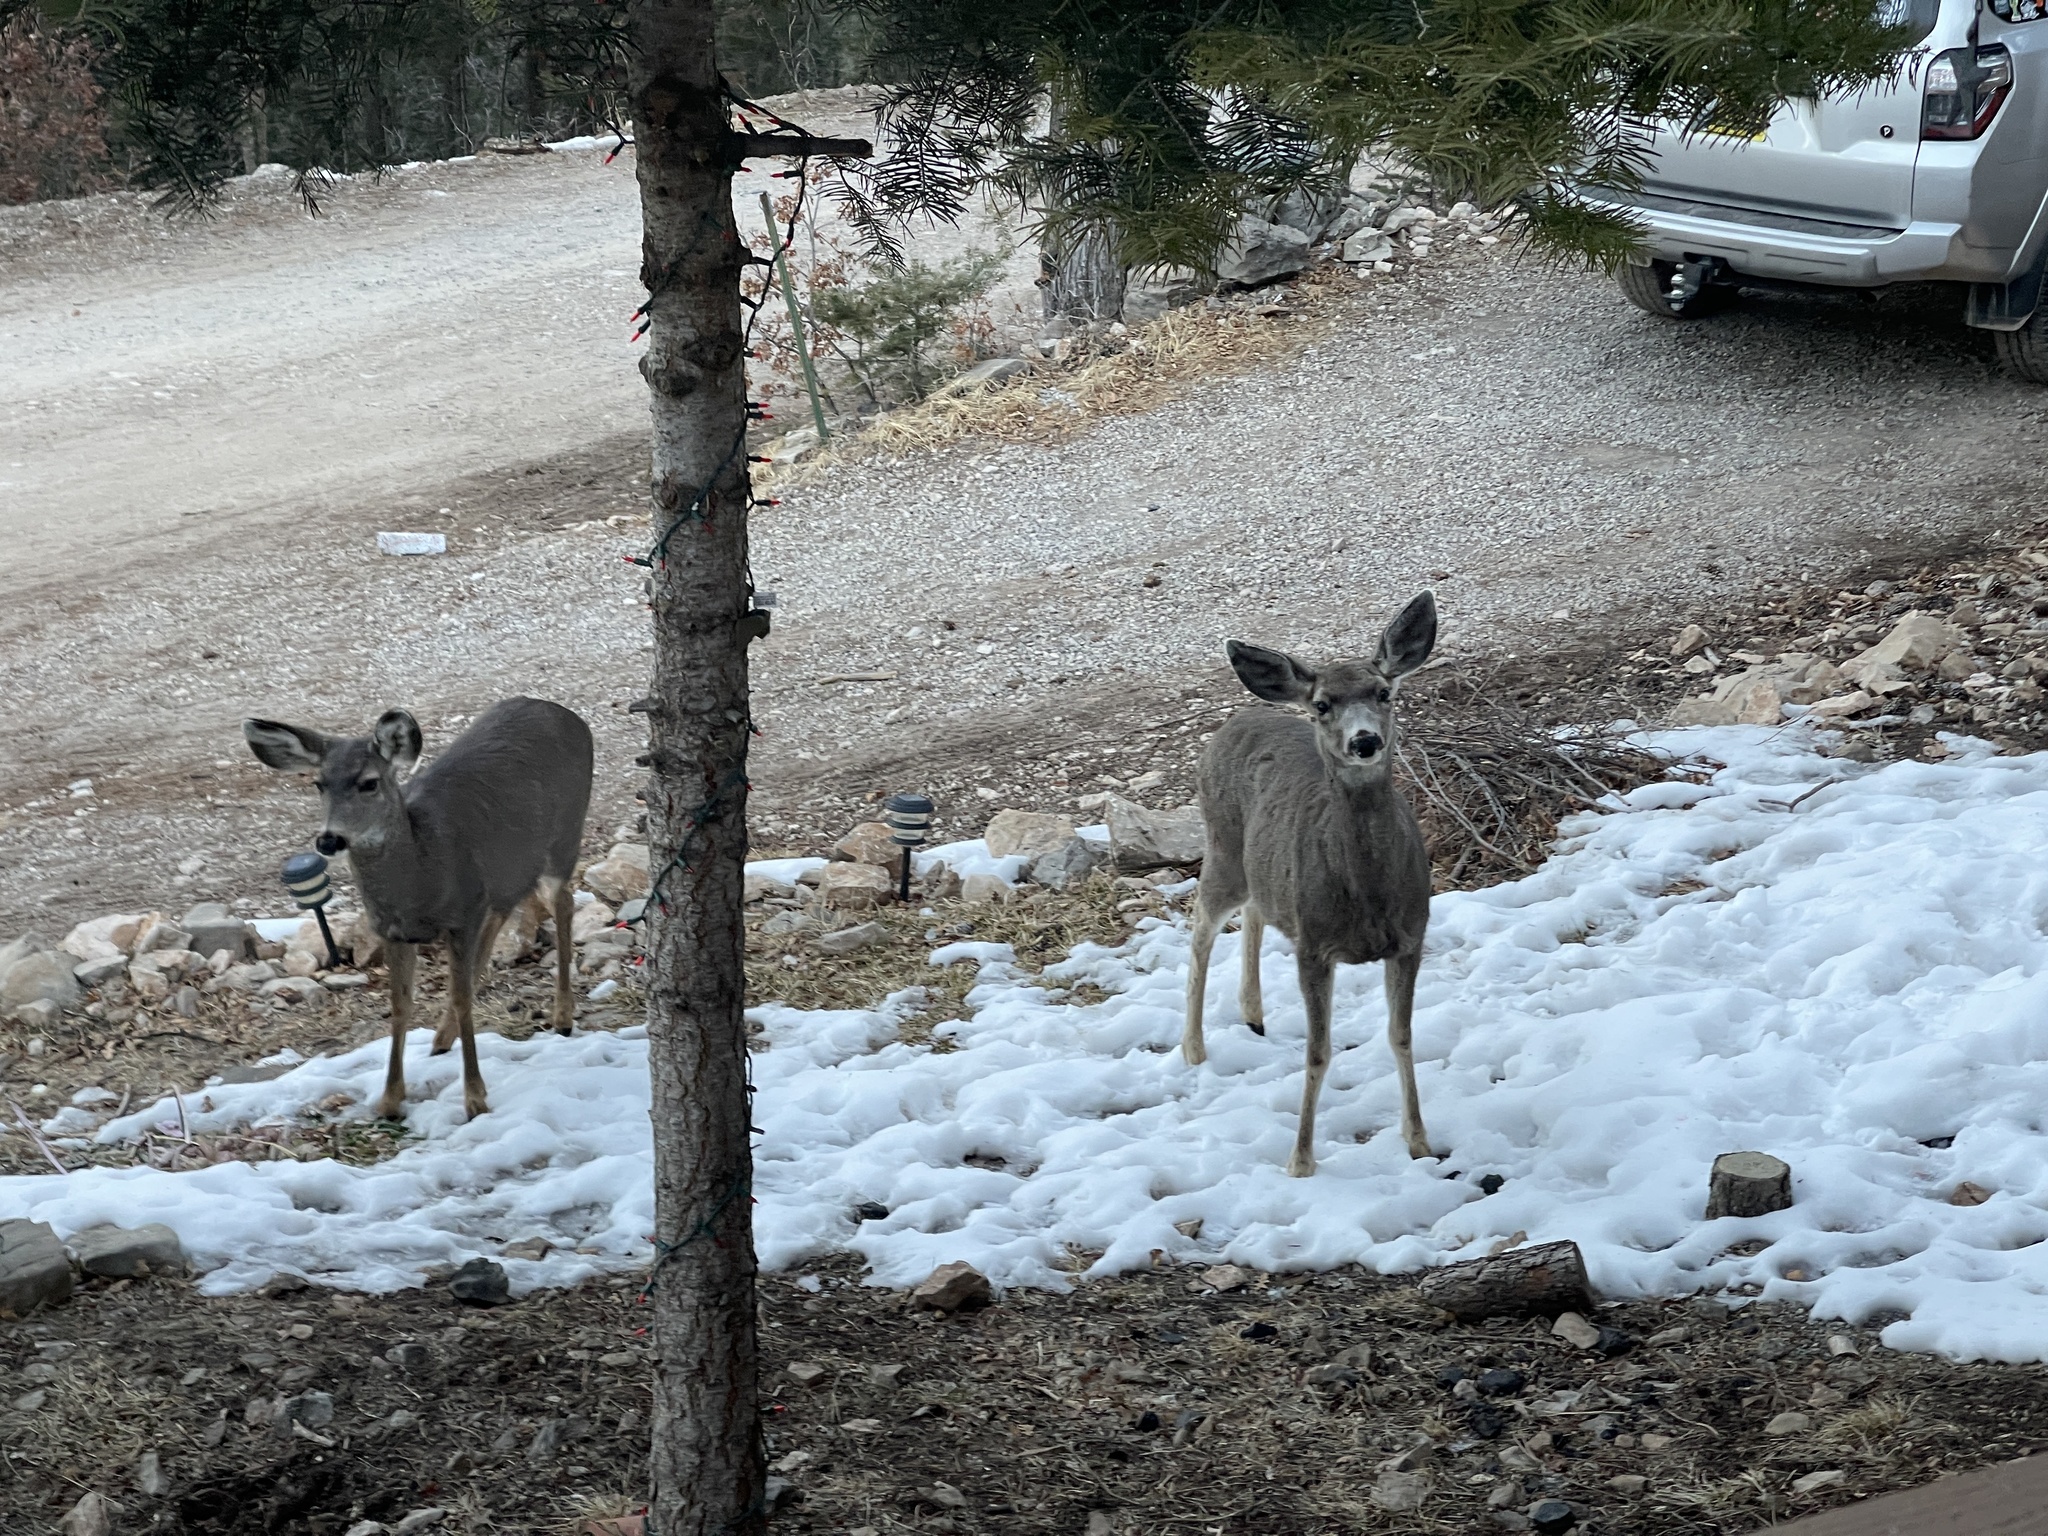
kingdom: Animalia
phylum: Chordata
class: Mammalia
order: Artiodactyla
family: Cervidae
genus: Odocoileus
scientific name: Odocoileus hemionus
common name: Mule deer
